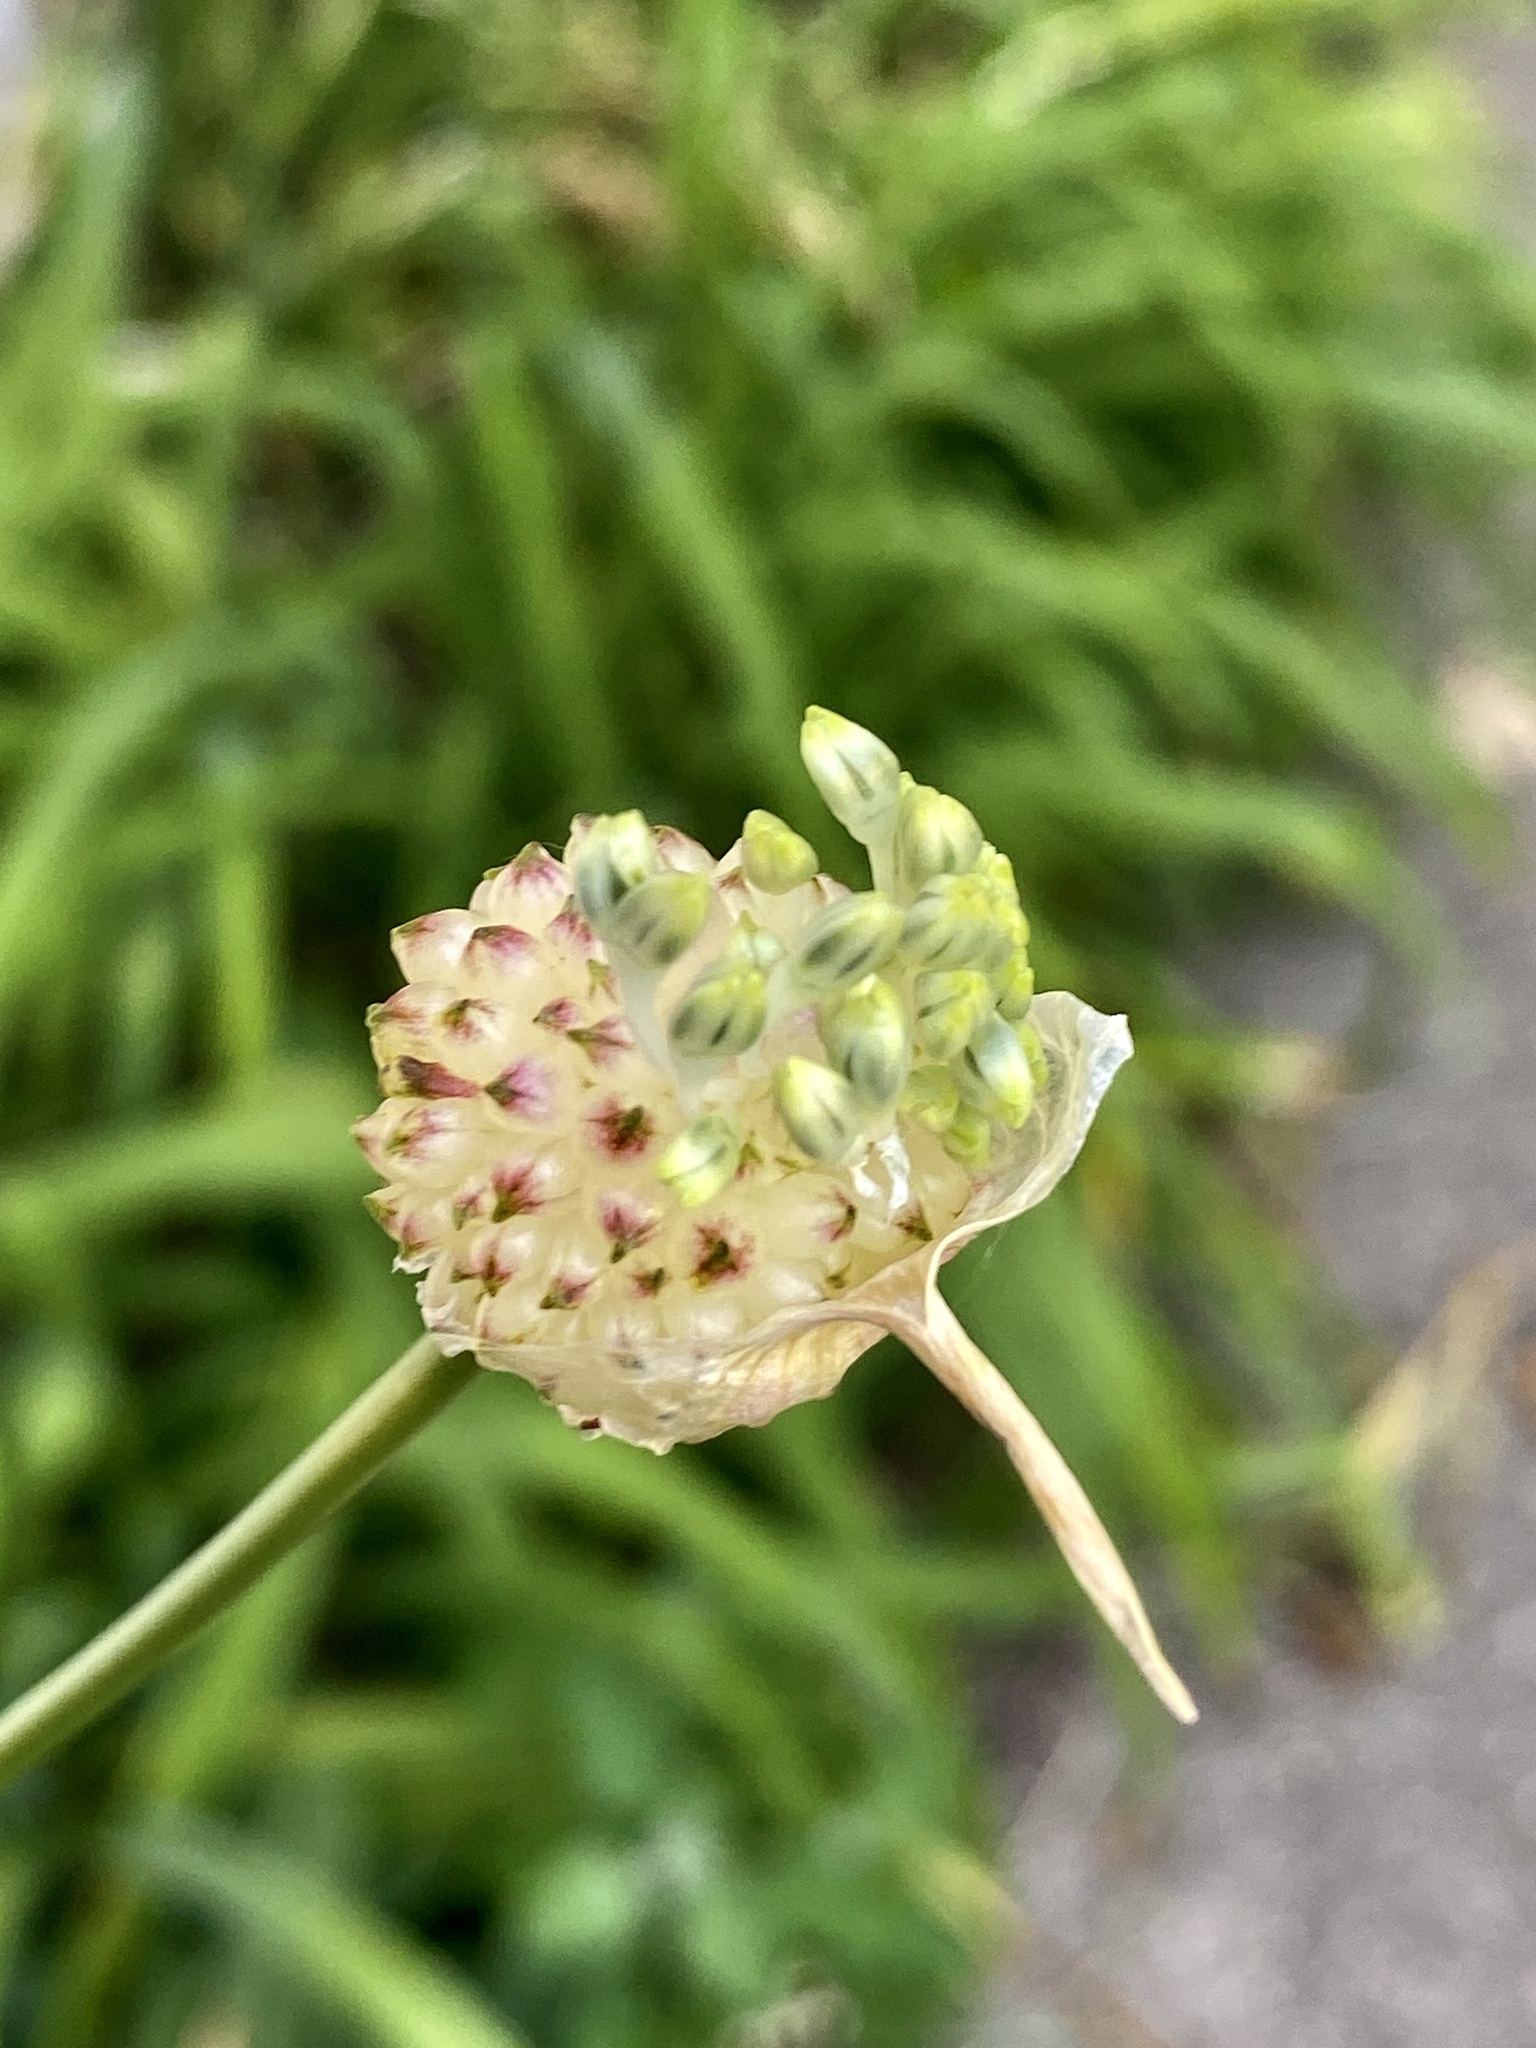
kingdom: Plantae
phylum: Tracheophyta
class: Liliopsida
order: Asparagales
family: Amaryllidaceae
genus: Allium
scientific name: Allium vineale
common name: Crow garlic
